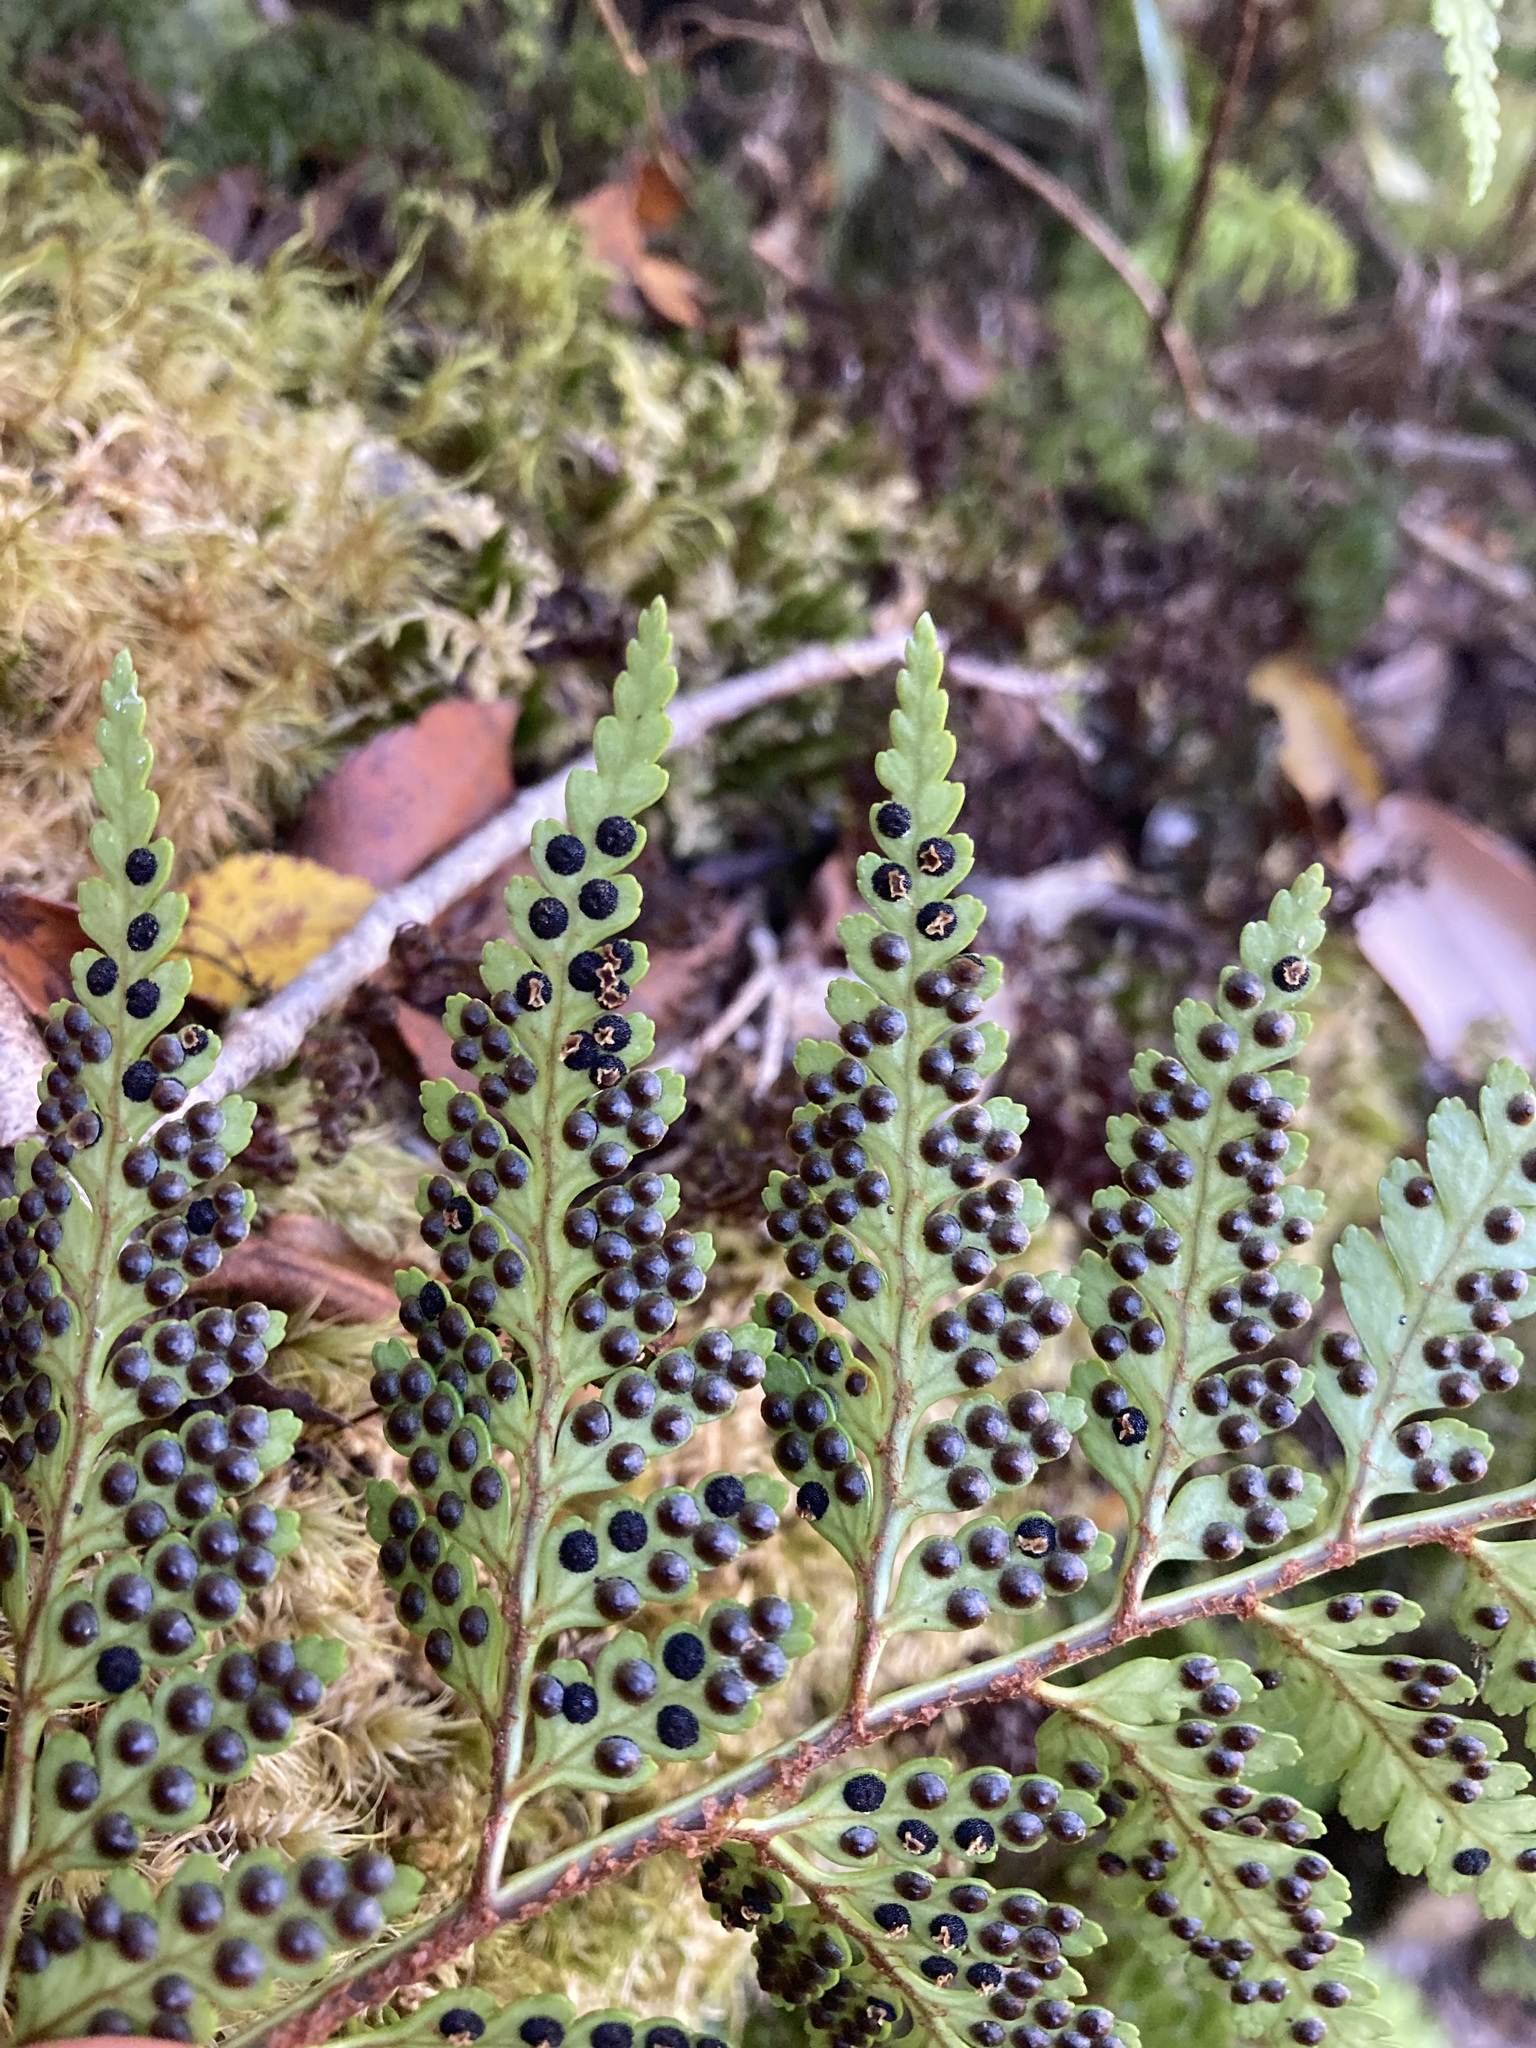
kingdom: Plantae
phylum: Tracheophyta
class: Polypodiopsida
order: Polypodiales
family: Dryopteridaceae
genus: Rumohra
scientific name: Rumohra adiantiformis
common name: Leather fern
